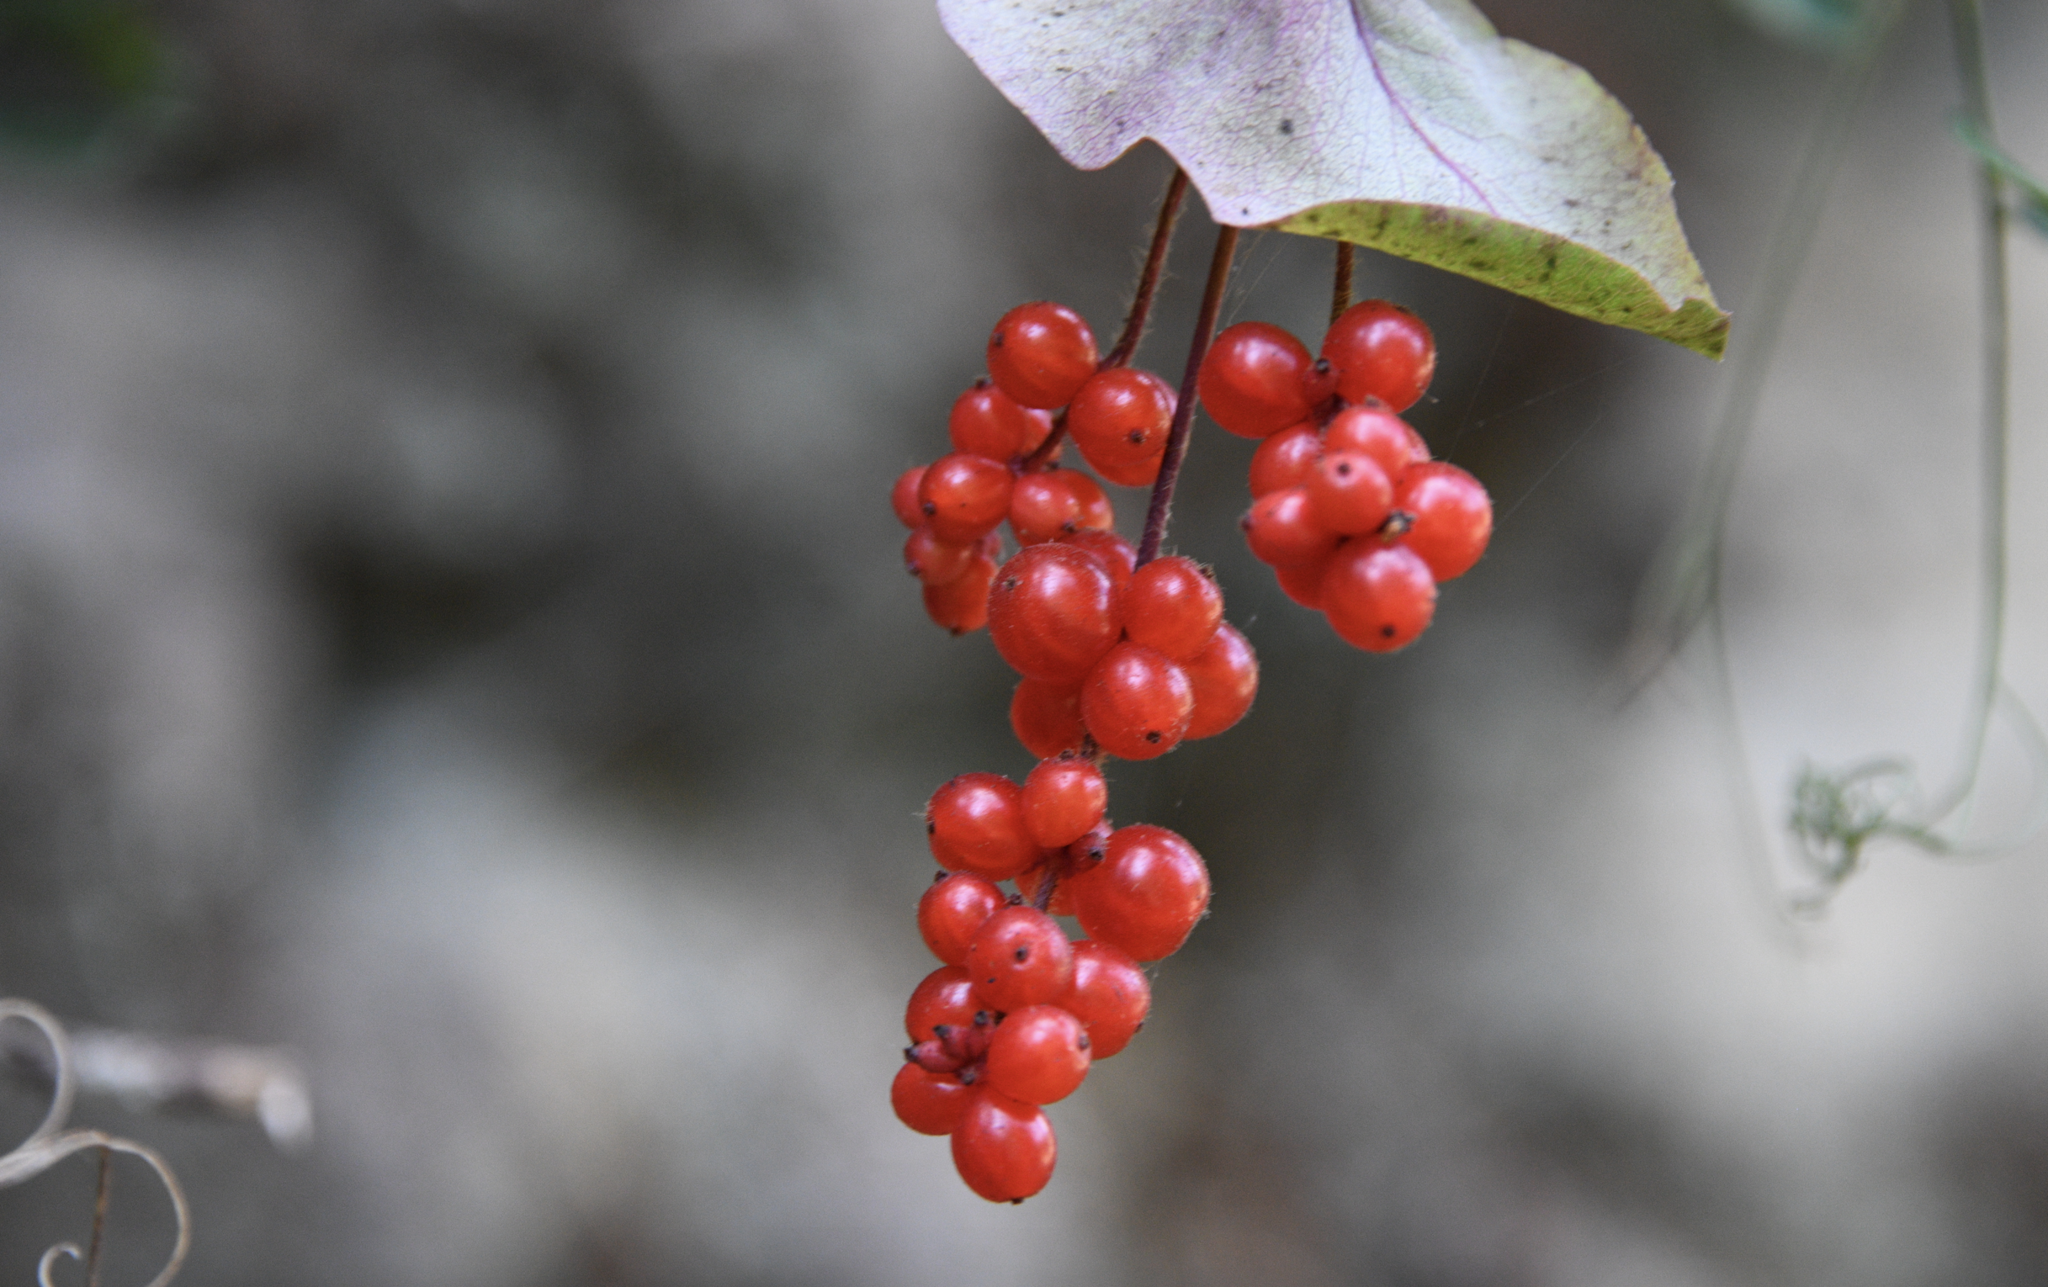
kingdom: Plantae
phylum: Tracheophyta
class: Magnoliopsida
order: Dipsacales
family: Caprifoliaceae
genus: Lonicera
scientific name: Lonicera hispidula
